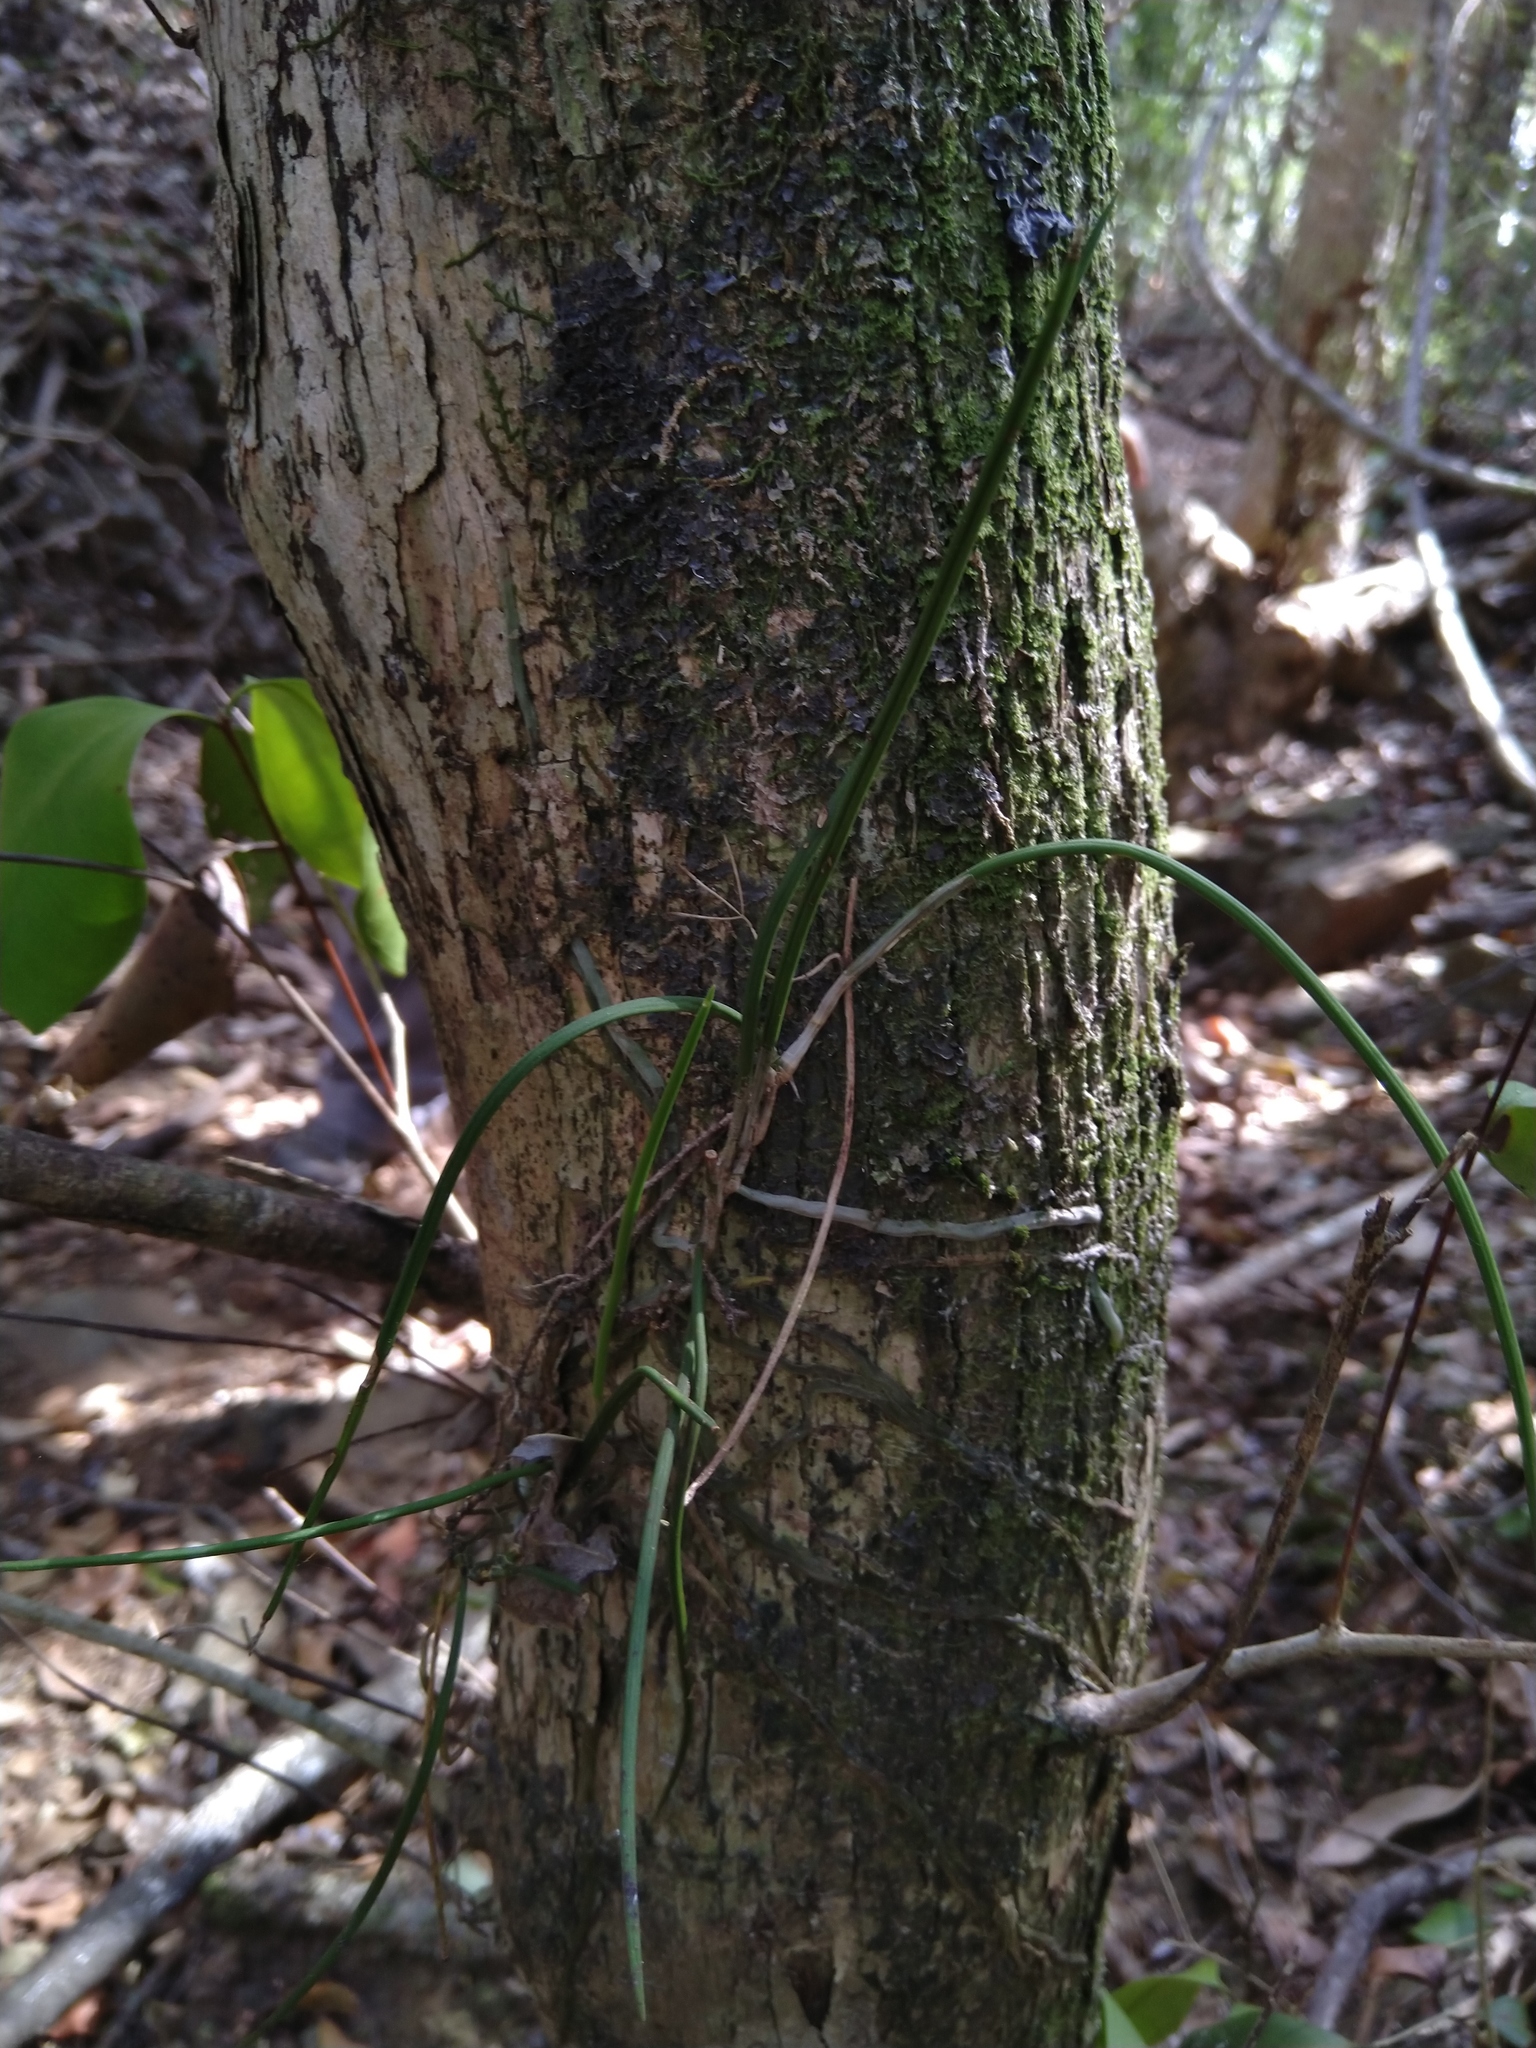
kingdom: Plantae
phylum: Tracheophyta
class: Liliopsida
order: Asparagales
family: Orchidaceae
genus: Dendrobium
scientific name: Dendrobium bowmanii
